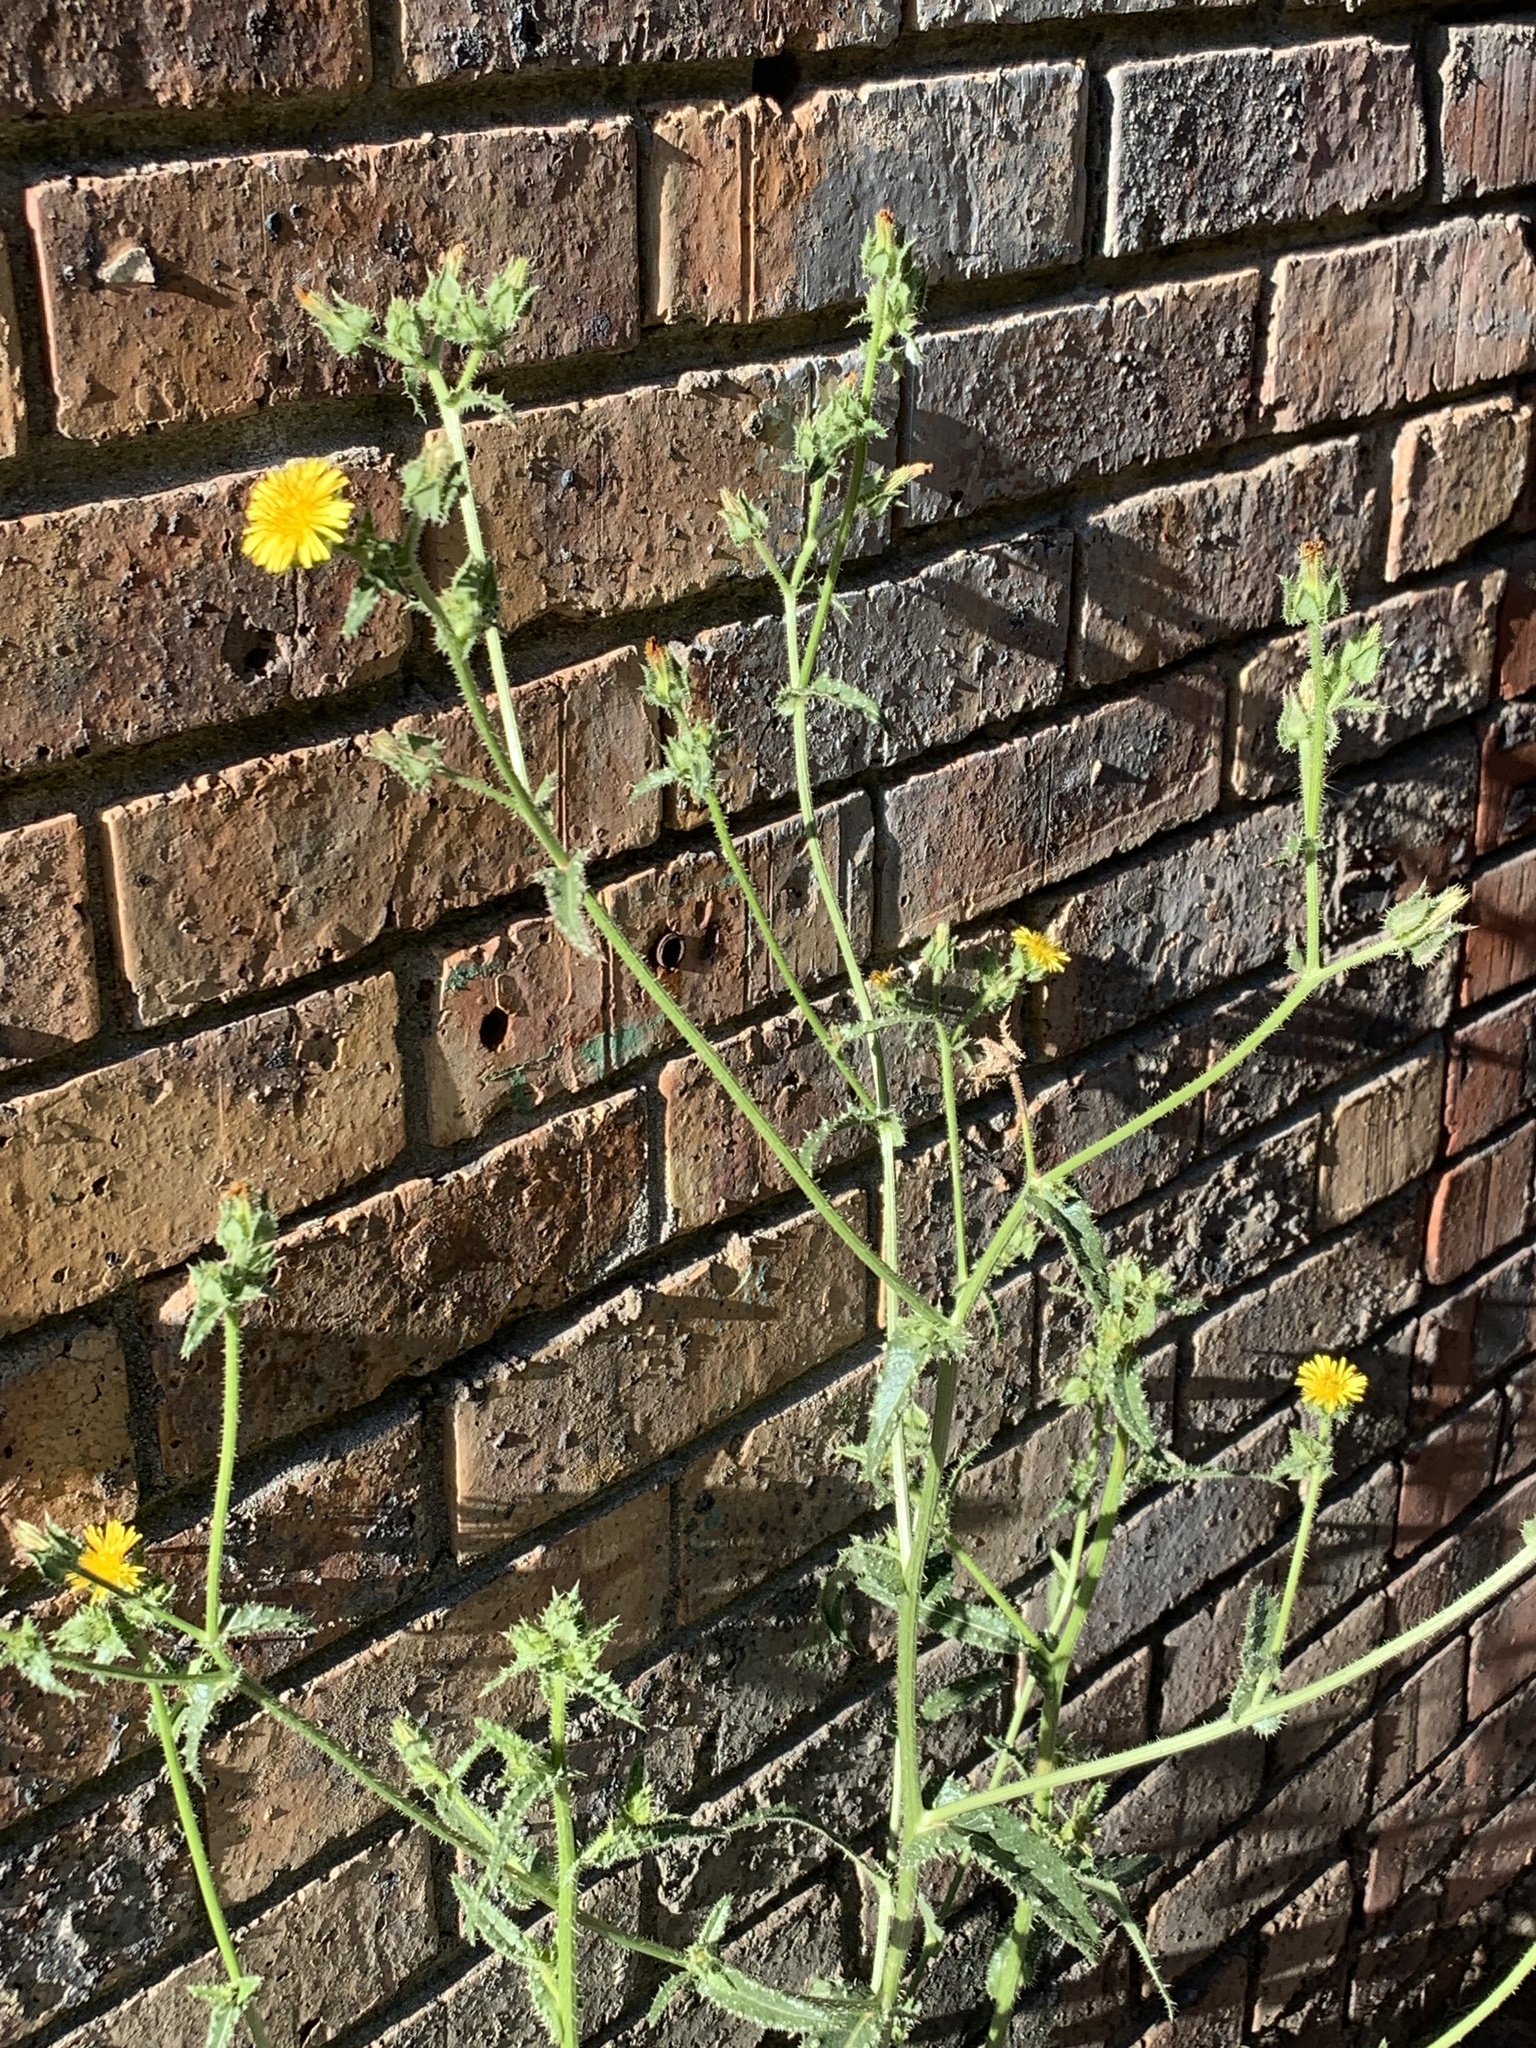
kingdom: Plantae
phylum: Tracheophyta
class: Magnoliopsida
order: Asterales
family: Asteraceae
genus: Helminthotheca
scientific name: Helminthotheca echioides
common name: Ox-tongue
